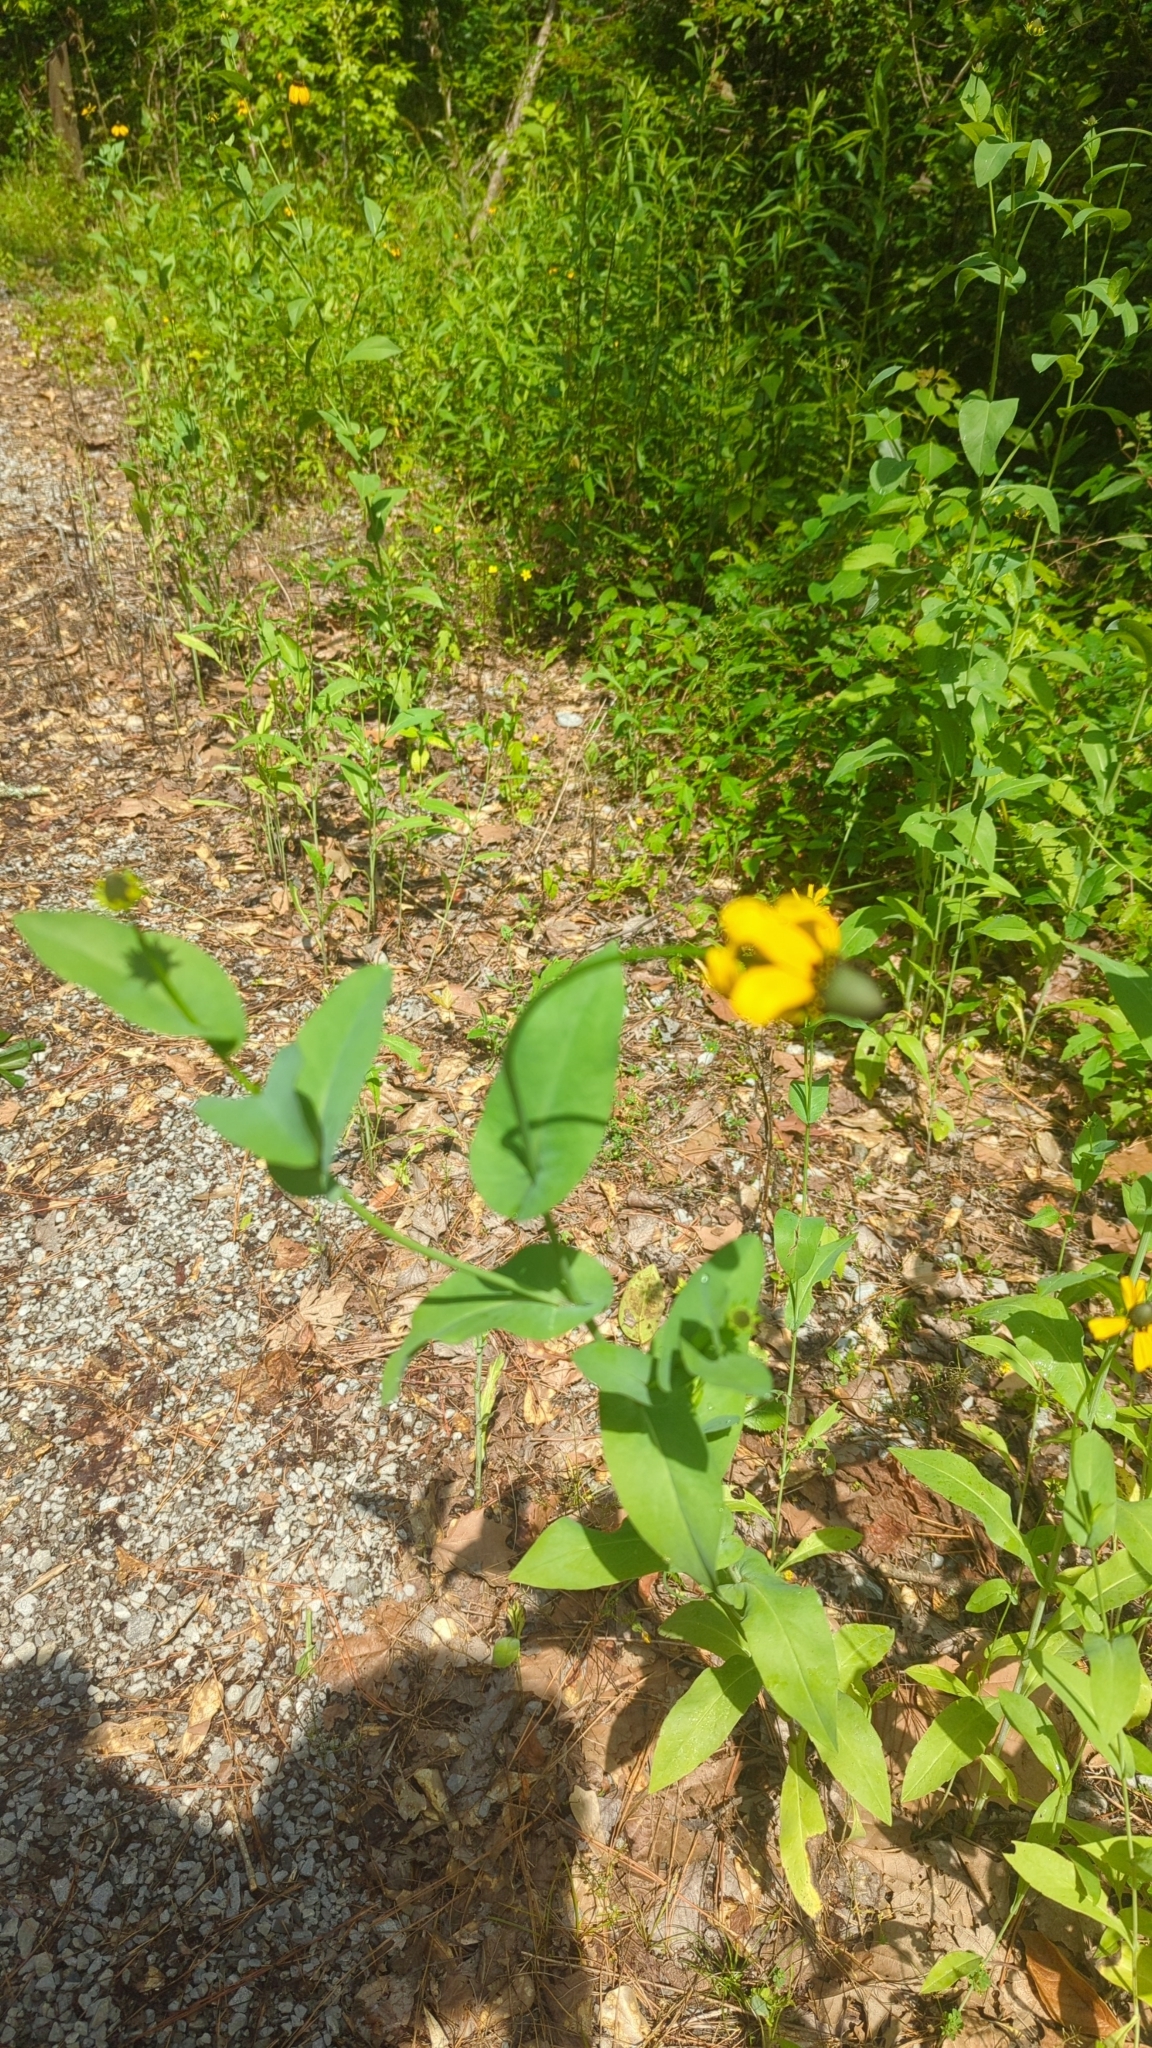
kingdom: Plantae
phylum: Tracheophyta
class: Magnoliopsida
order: Asterales
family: Asteraceae
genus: Rudbeckia
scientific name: Rudbeckia amplexicaulis
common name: Clasping-leaf coneflower
